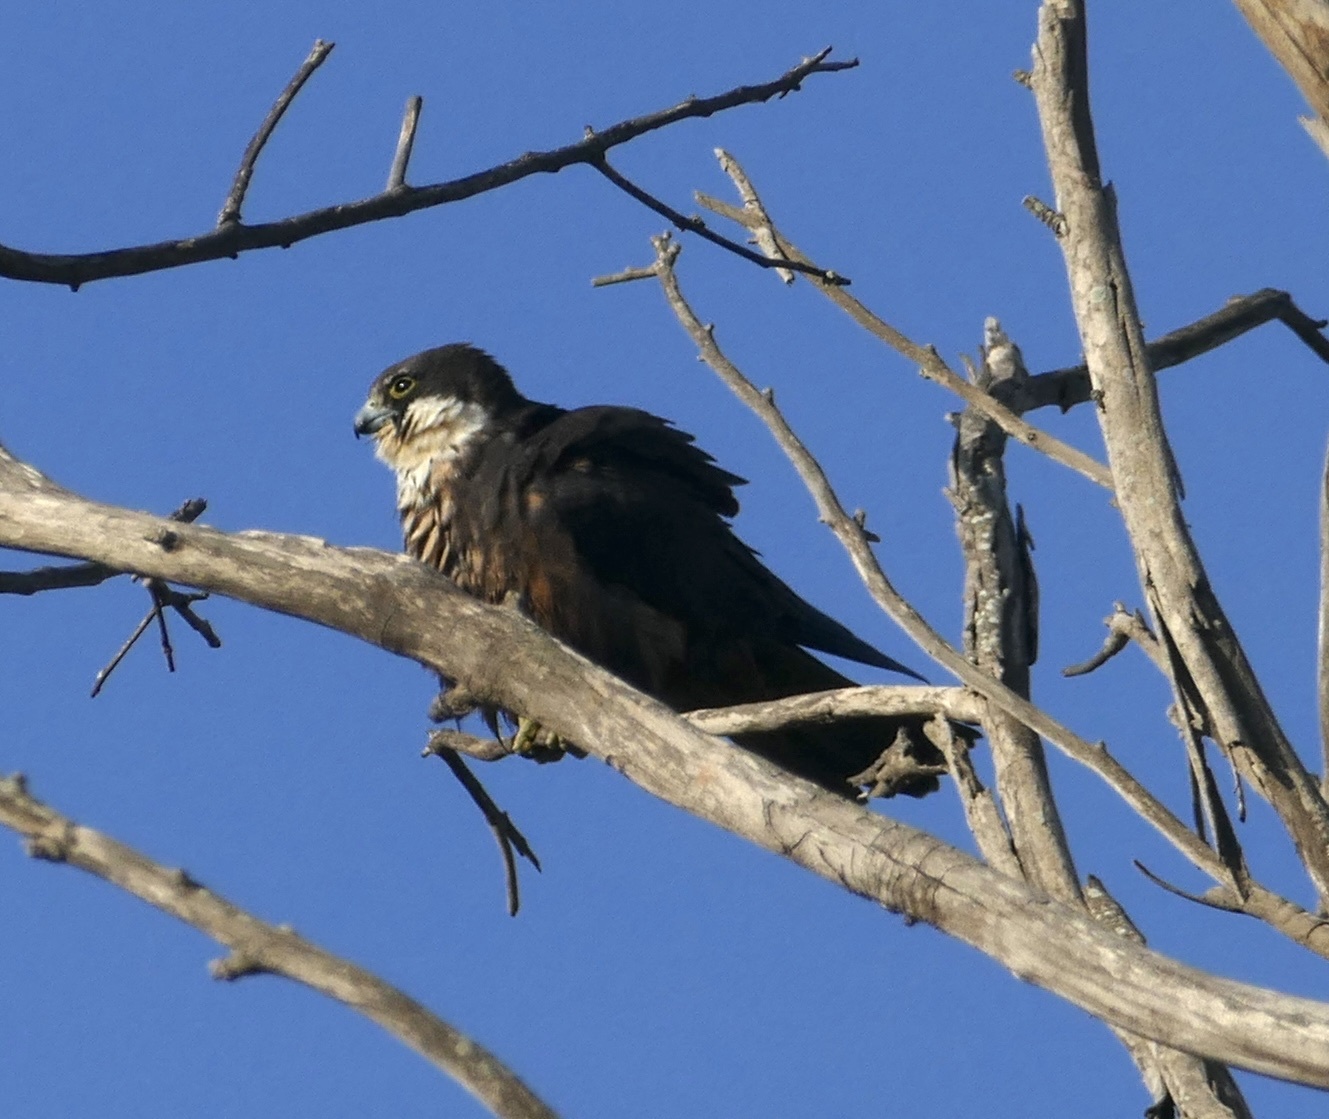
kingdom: Animalia
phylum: Chordata
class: Aves
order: Falconiformes
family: Falconidae
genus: Falco
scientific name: Falco eleonorae
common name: Eleonora's falcon
